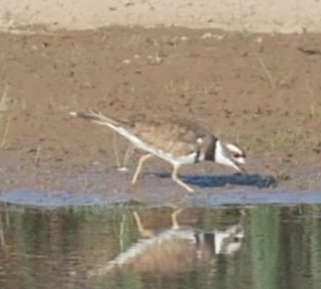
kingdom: Animalia
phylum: Chordata
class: Aves
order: Charadriiformes
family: Charadriidae
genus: Charadrius
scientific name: Charadrius vociferus
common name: Killdeer
